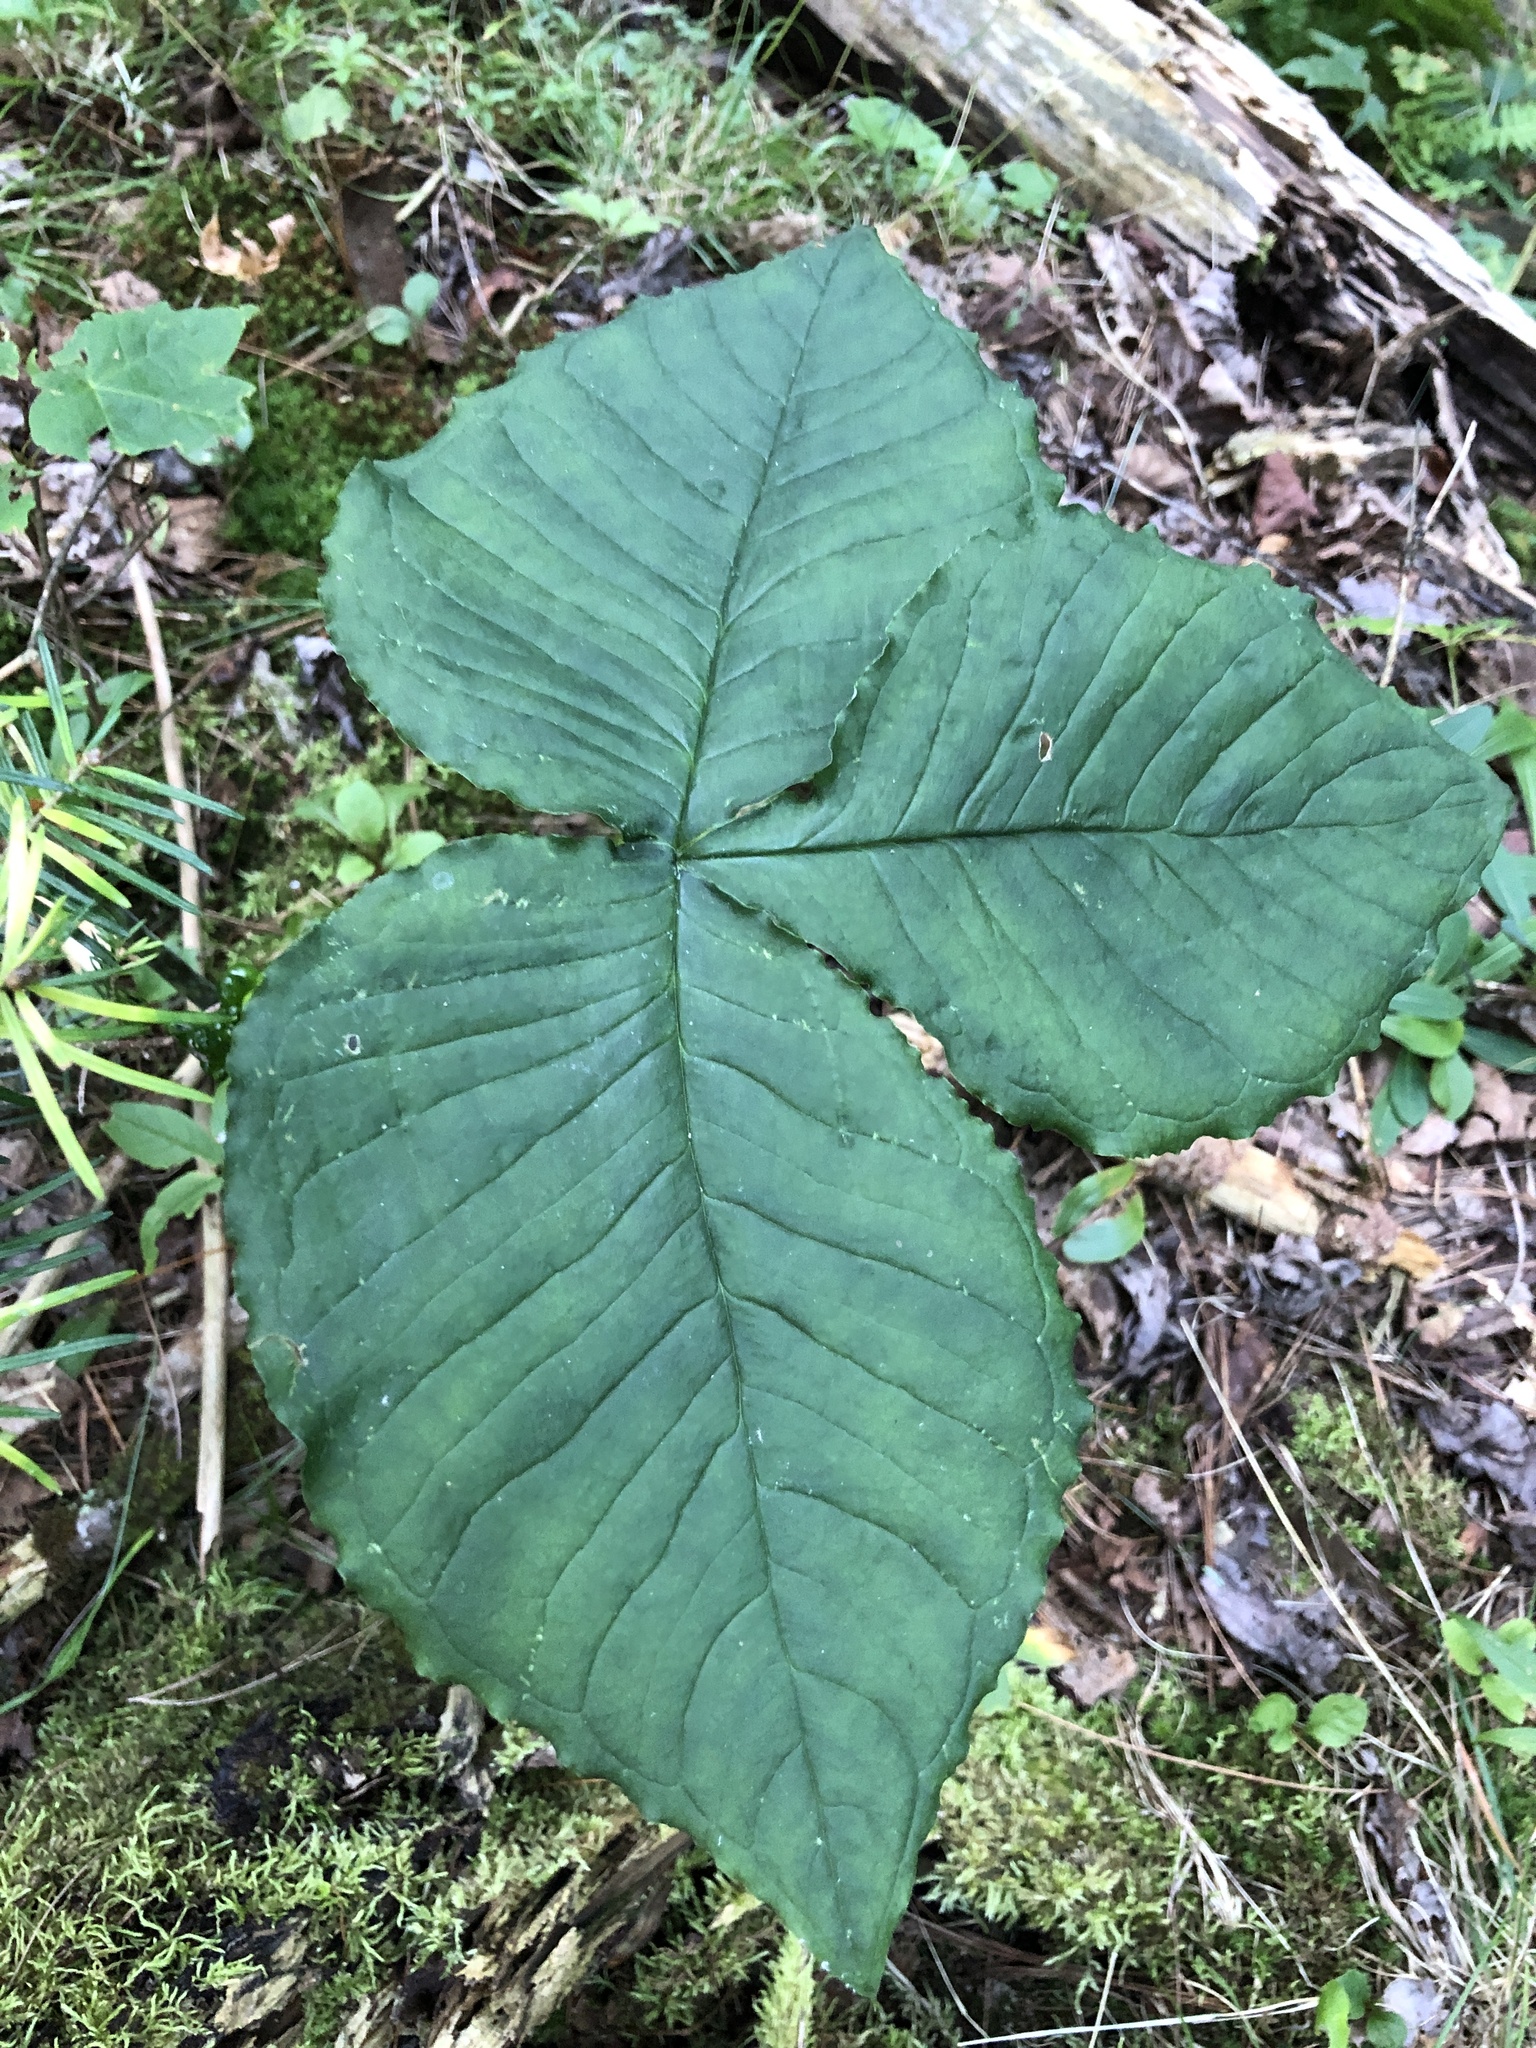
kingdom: Plantae
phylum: Tracheophyta
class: Liliopsida
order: Alismatales
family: Araceae
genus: Arisaema
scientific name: Arisaema triphyllum
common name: Jack-in-the-pulpit
